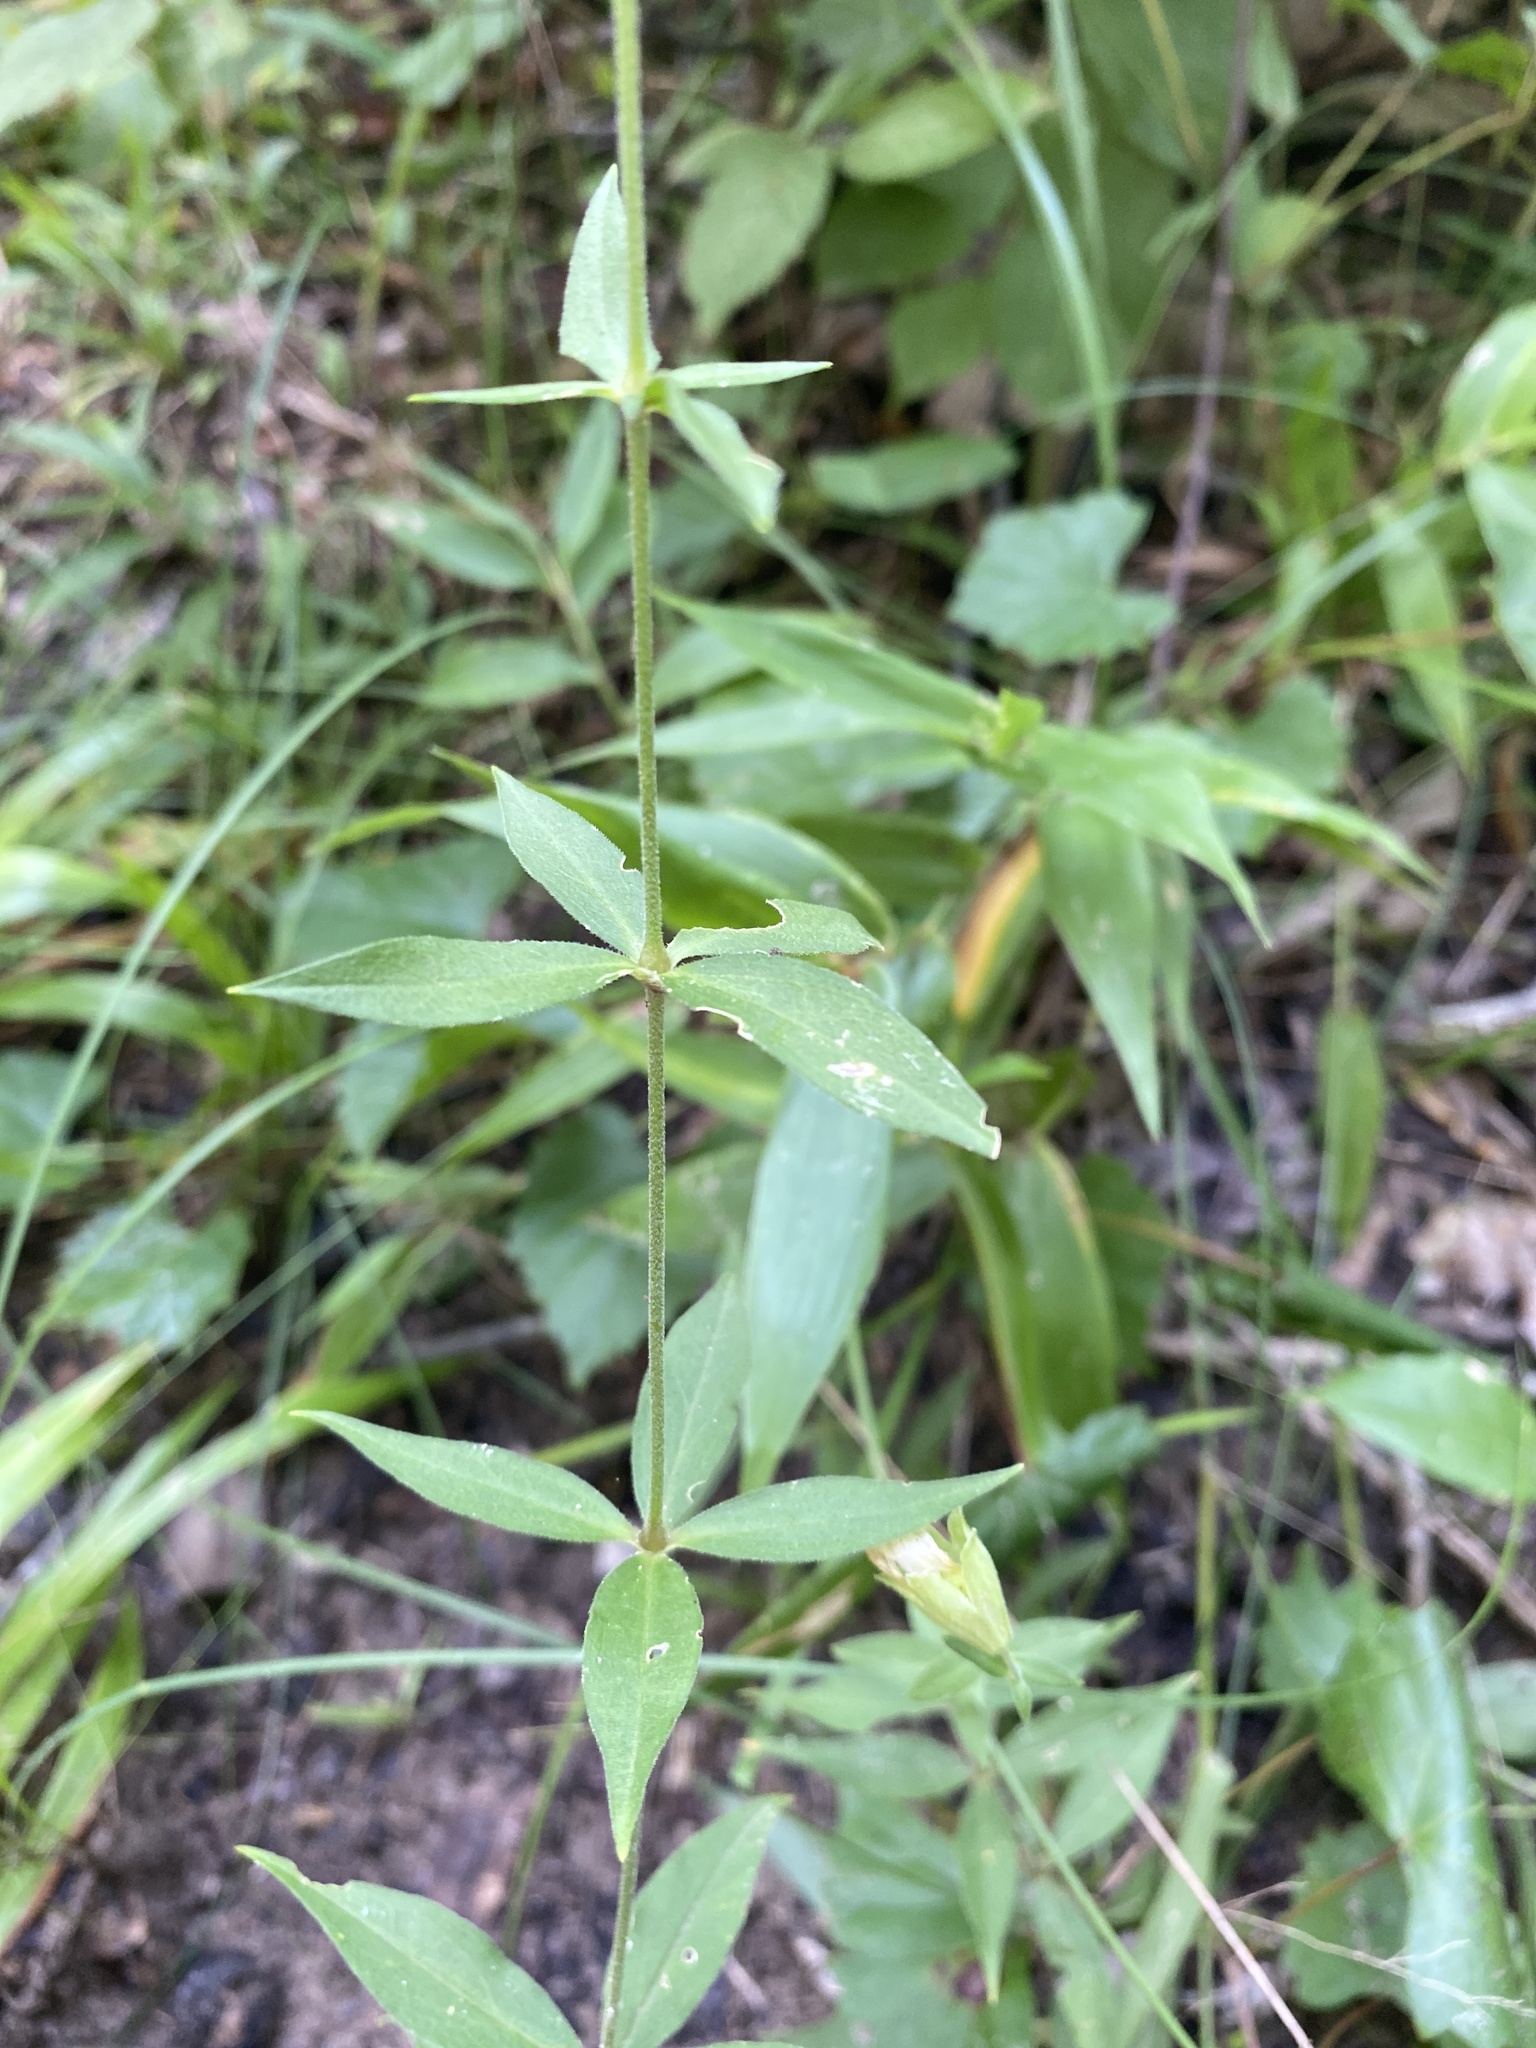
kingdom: Plantae
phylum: Tracheophyta
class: Magnoliopsida
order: Caryophyllales
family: Caryophyllaceae
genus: Silene
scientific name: Silene stellata
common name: Starry campion
